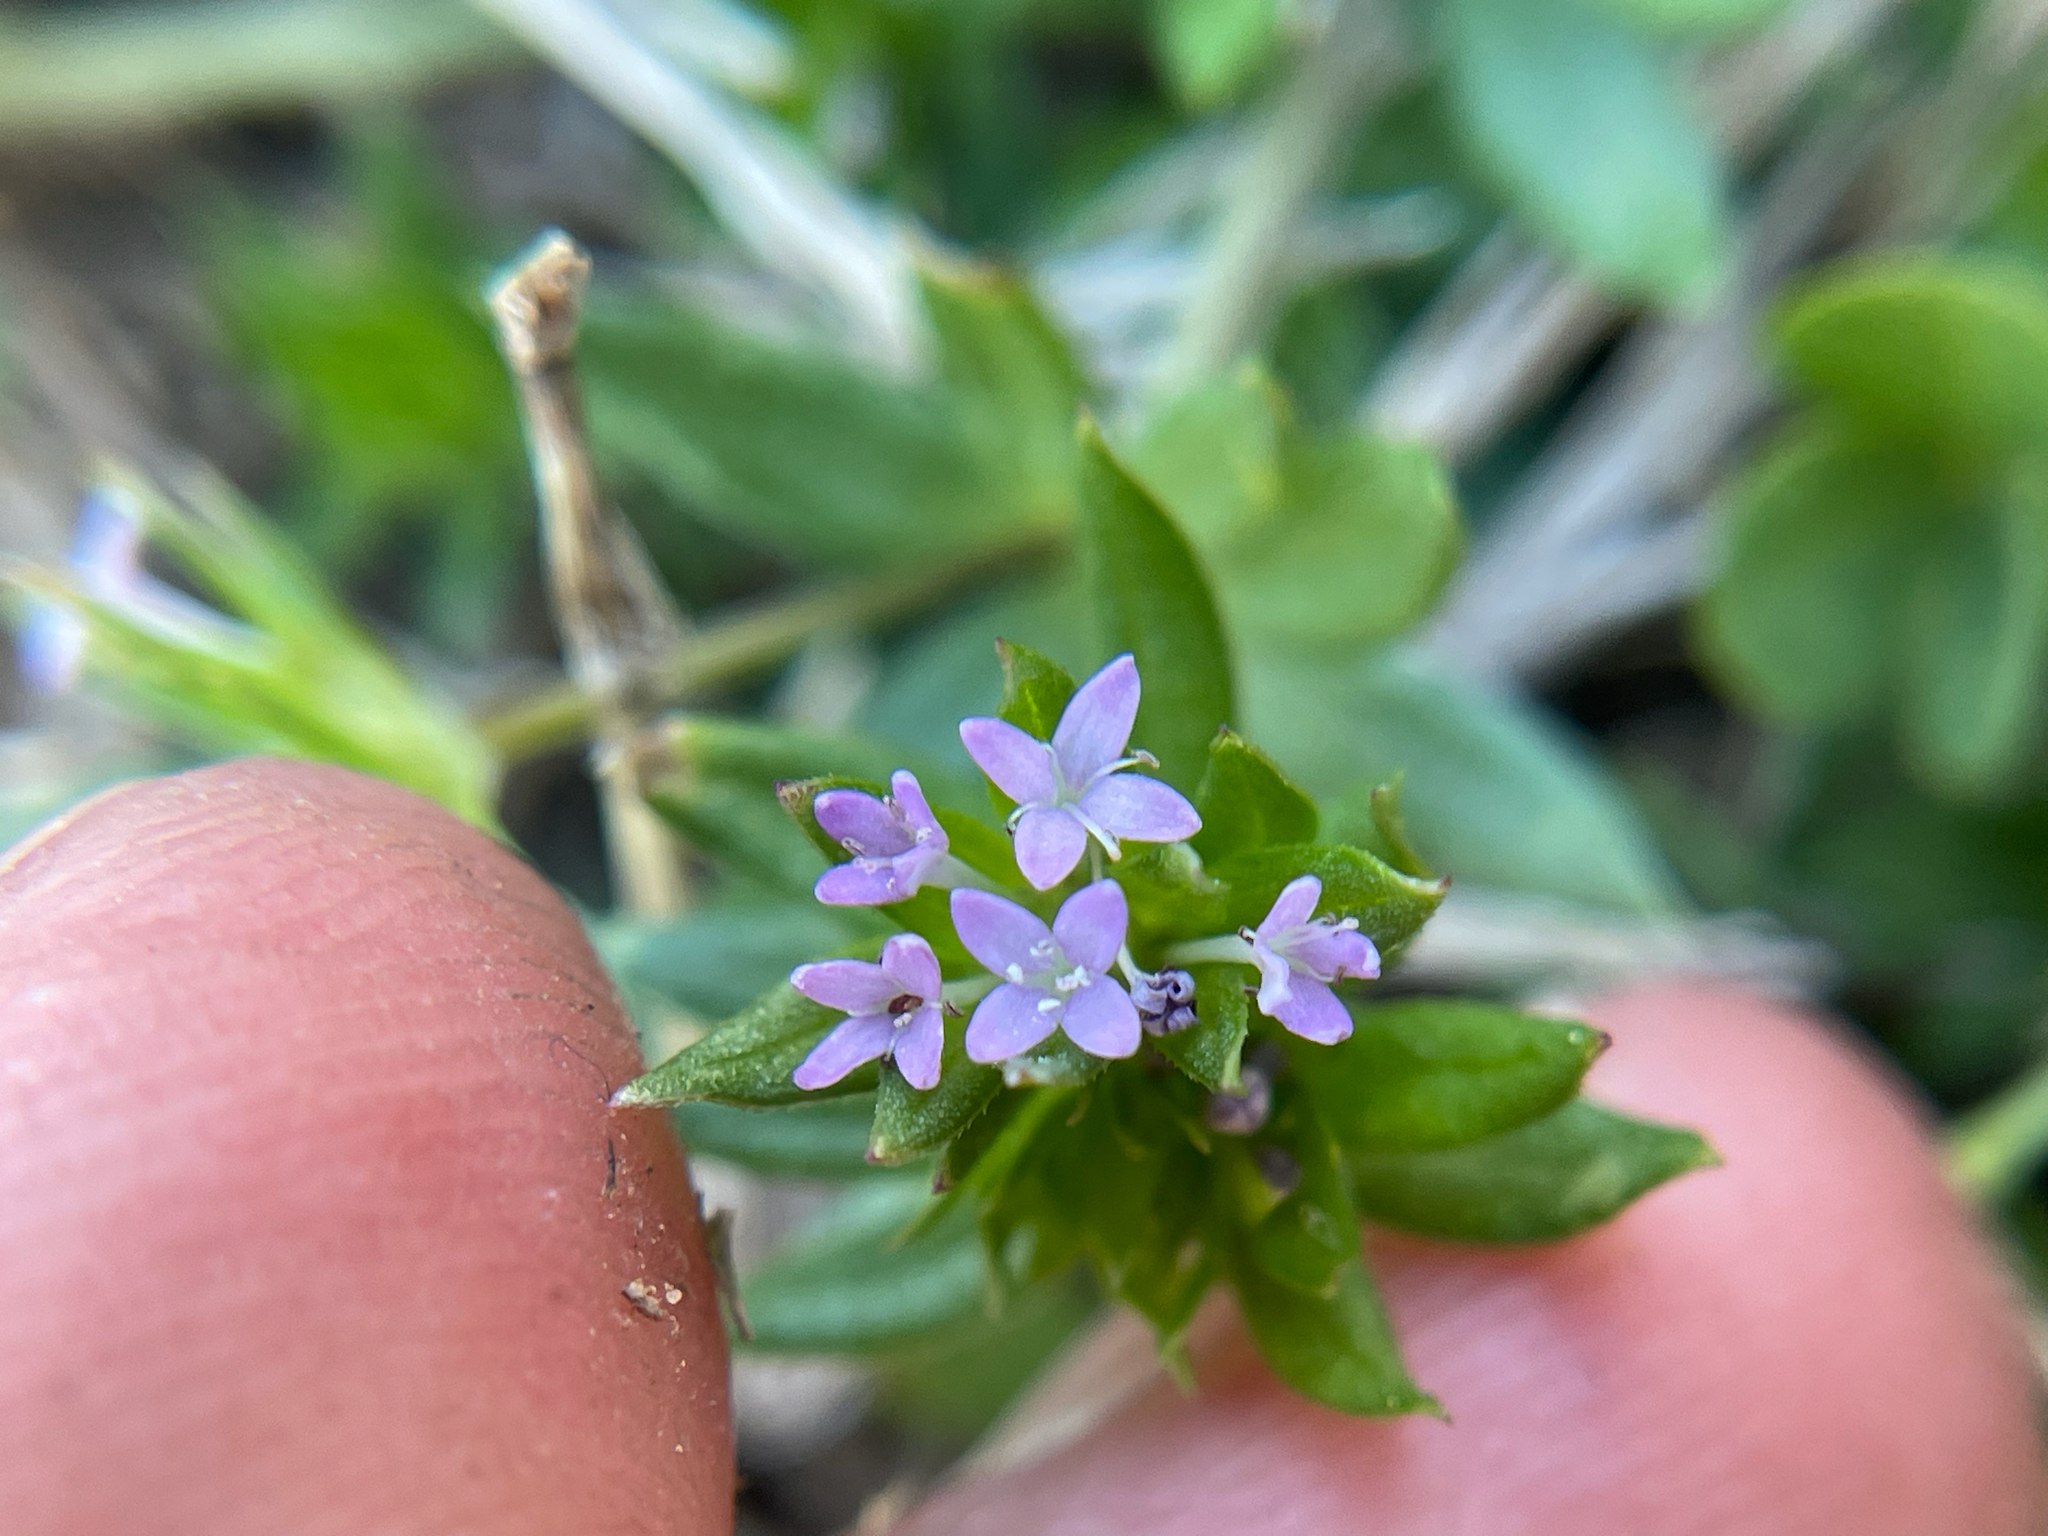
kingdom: Plantae
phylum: Tracheophyta
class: Magnoliopsida
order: Gentianales
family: Rubiaceae
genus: Sherardia
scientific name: Sherardia arvensis
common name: Field madder
